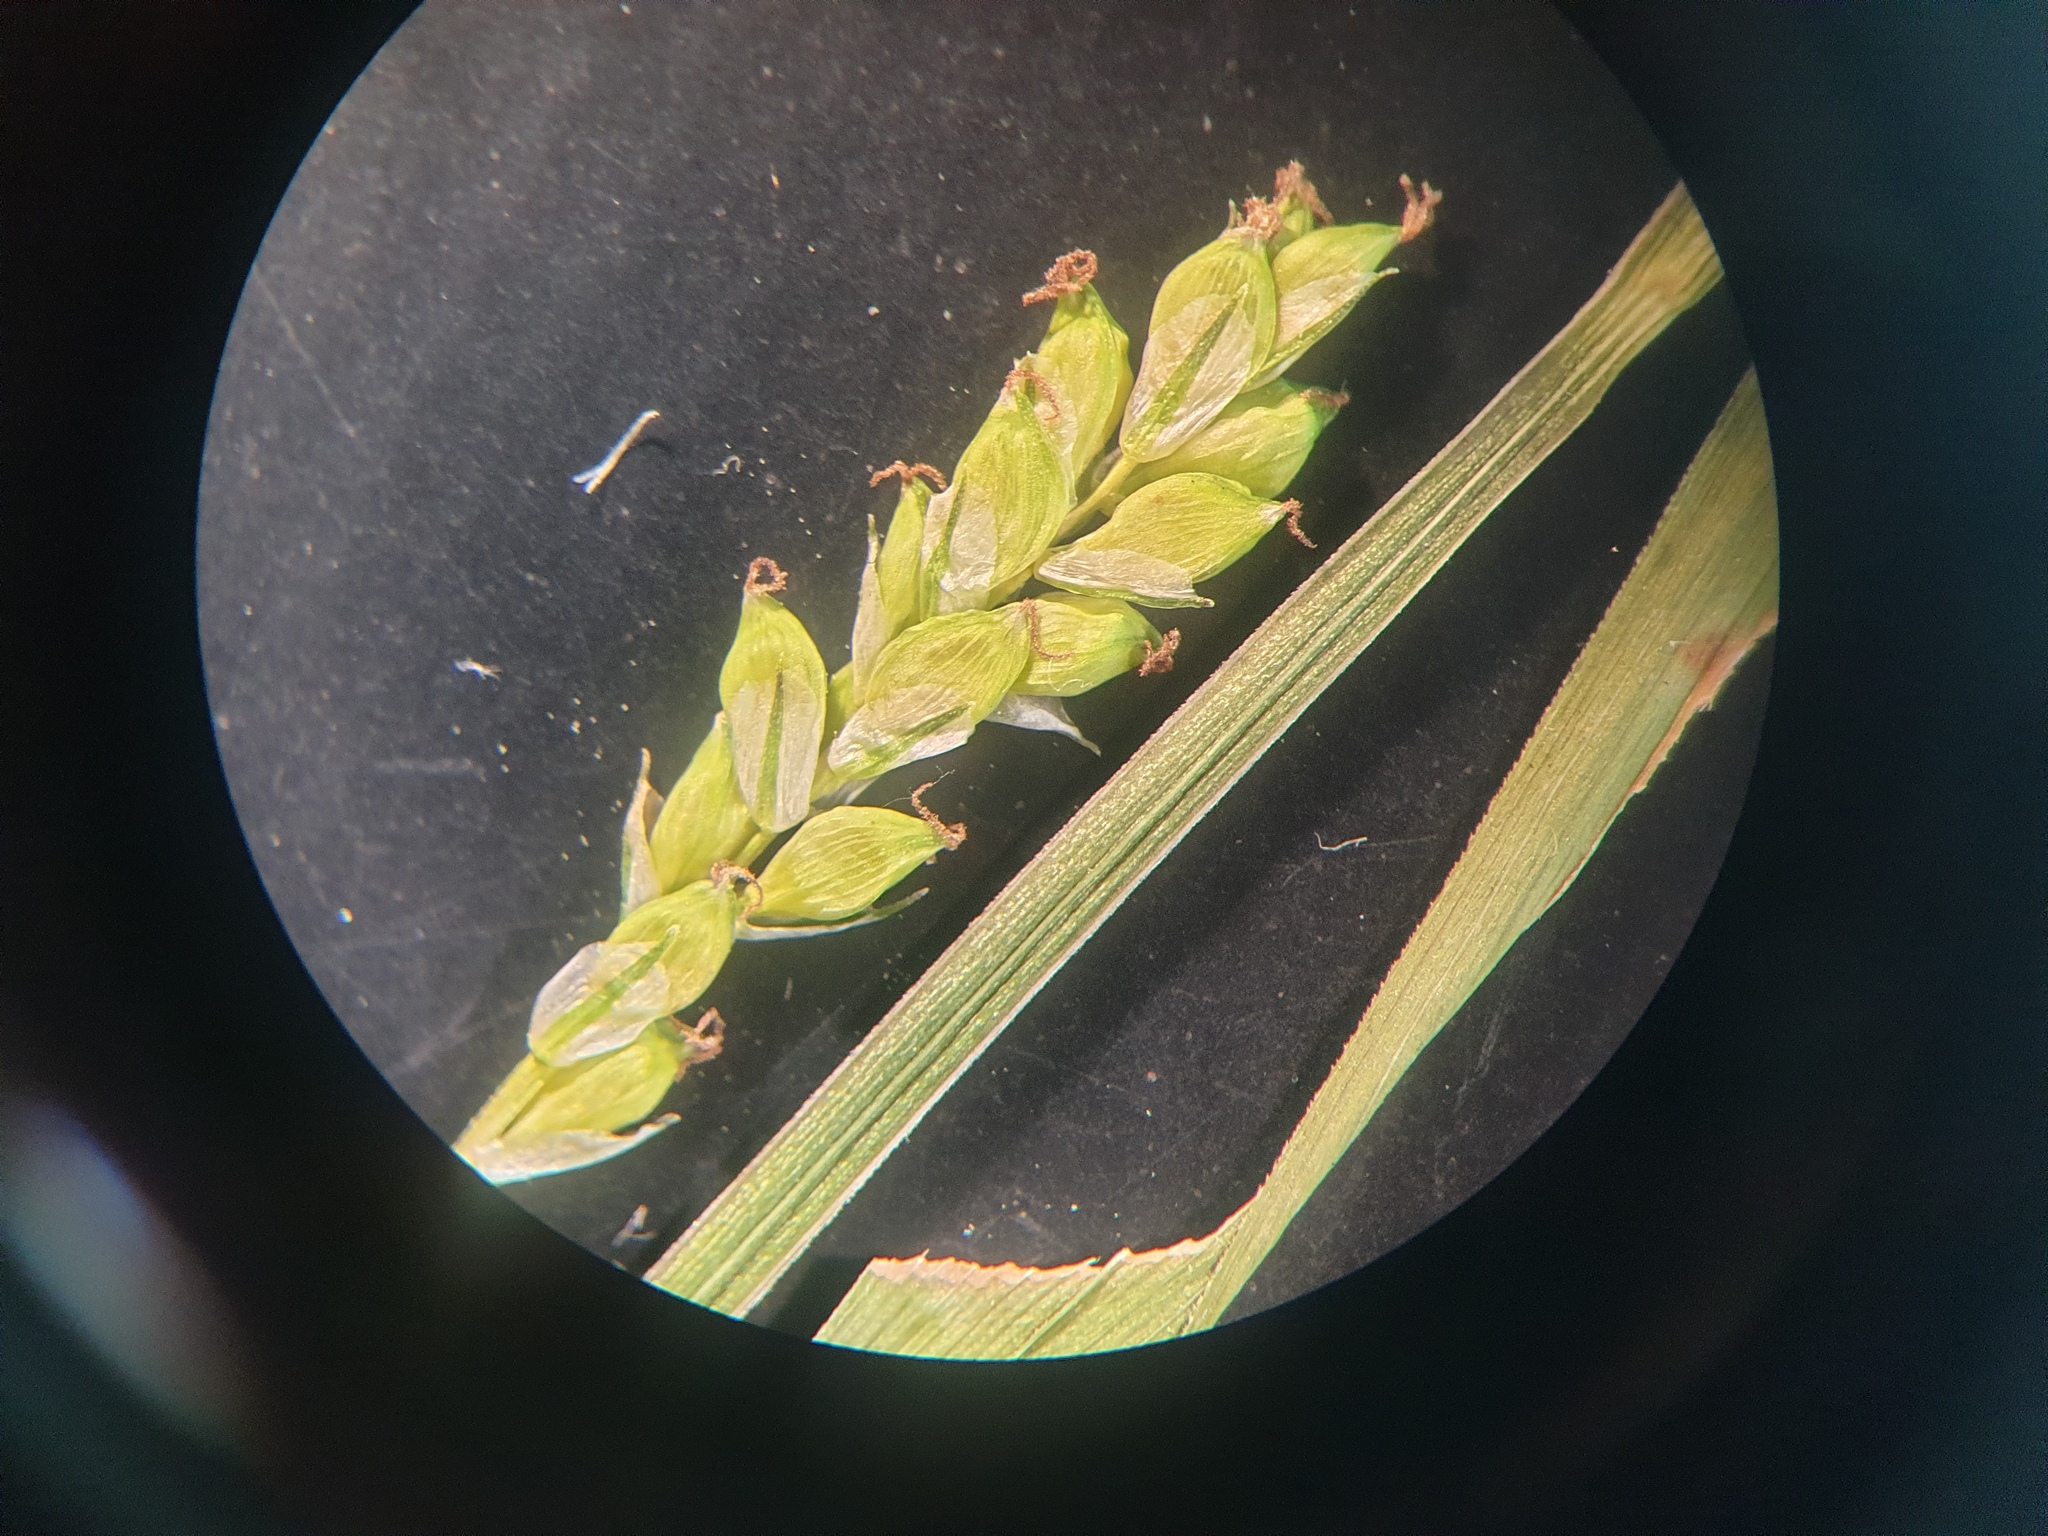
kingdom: Plantae
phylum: Tracheophyta
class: Liliopsida
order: Poales
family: Cyperaceae
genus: Carex
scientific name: Carex blanda
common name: Bland sedge
